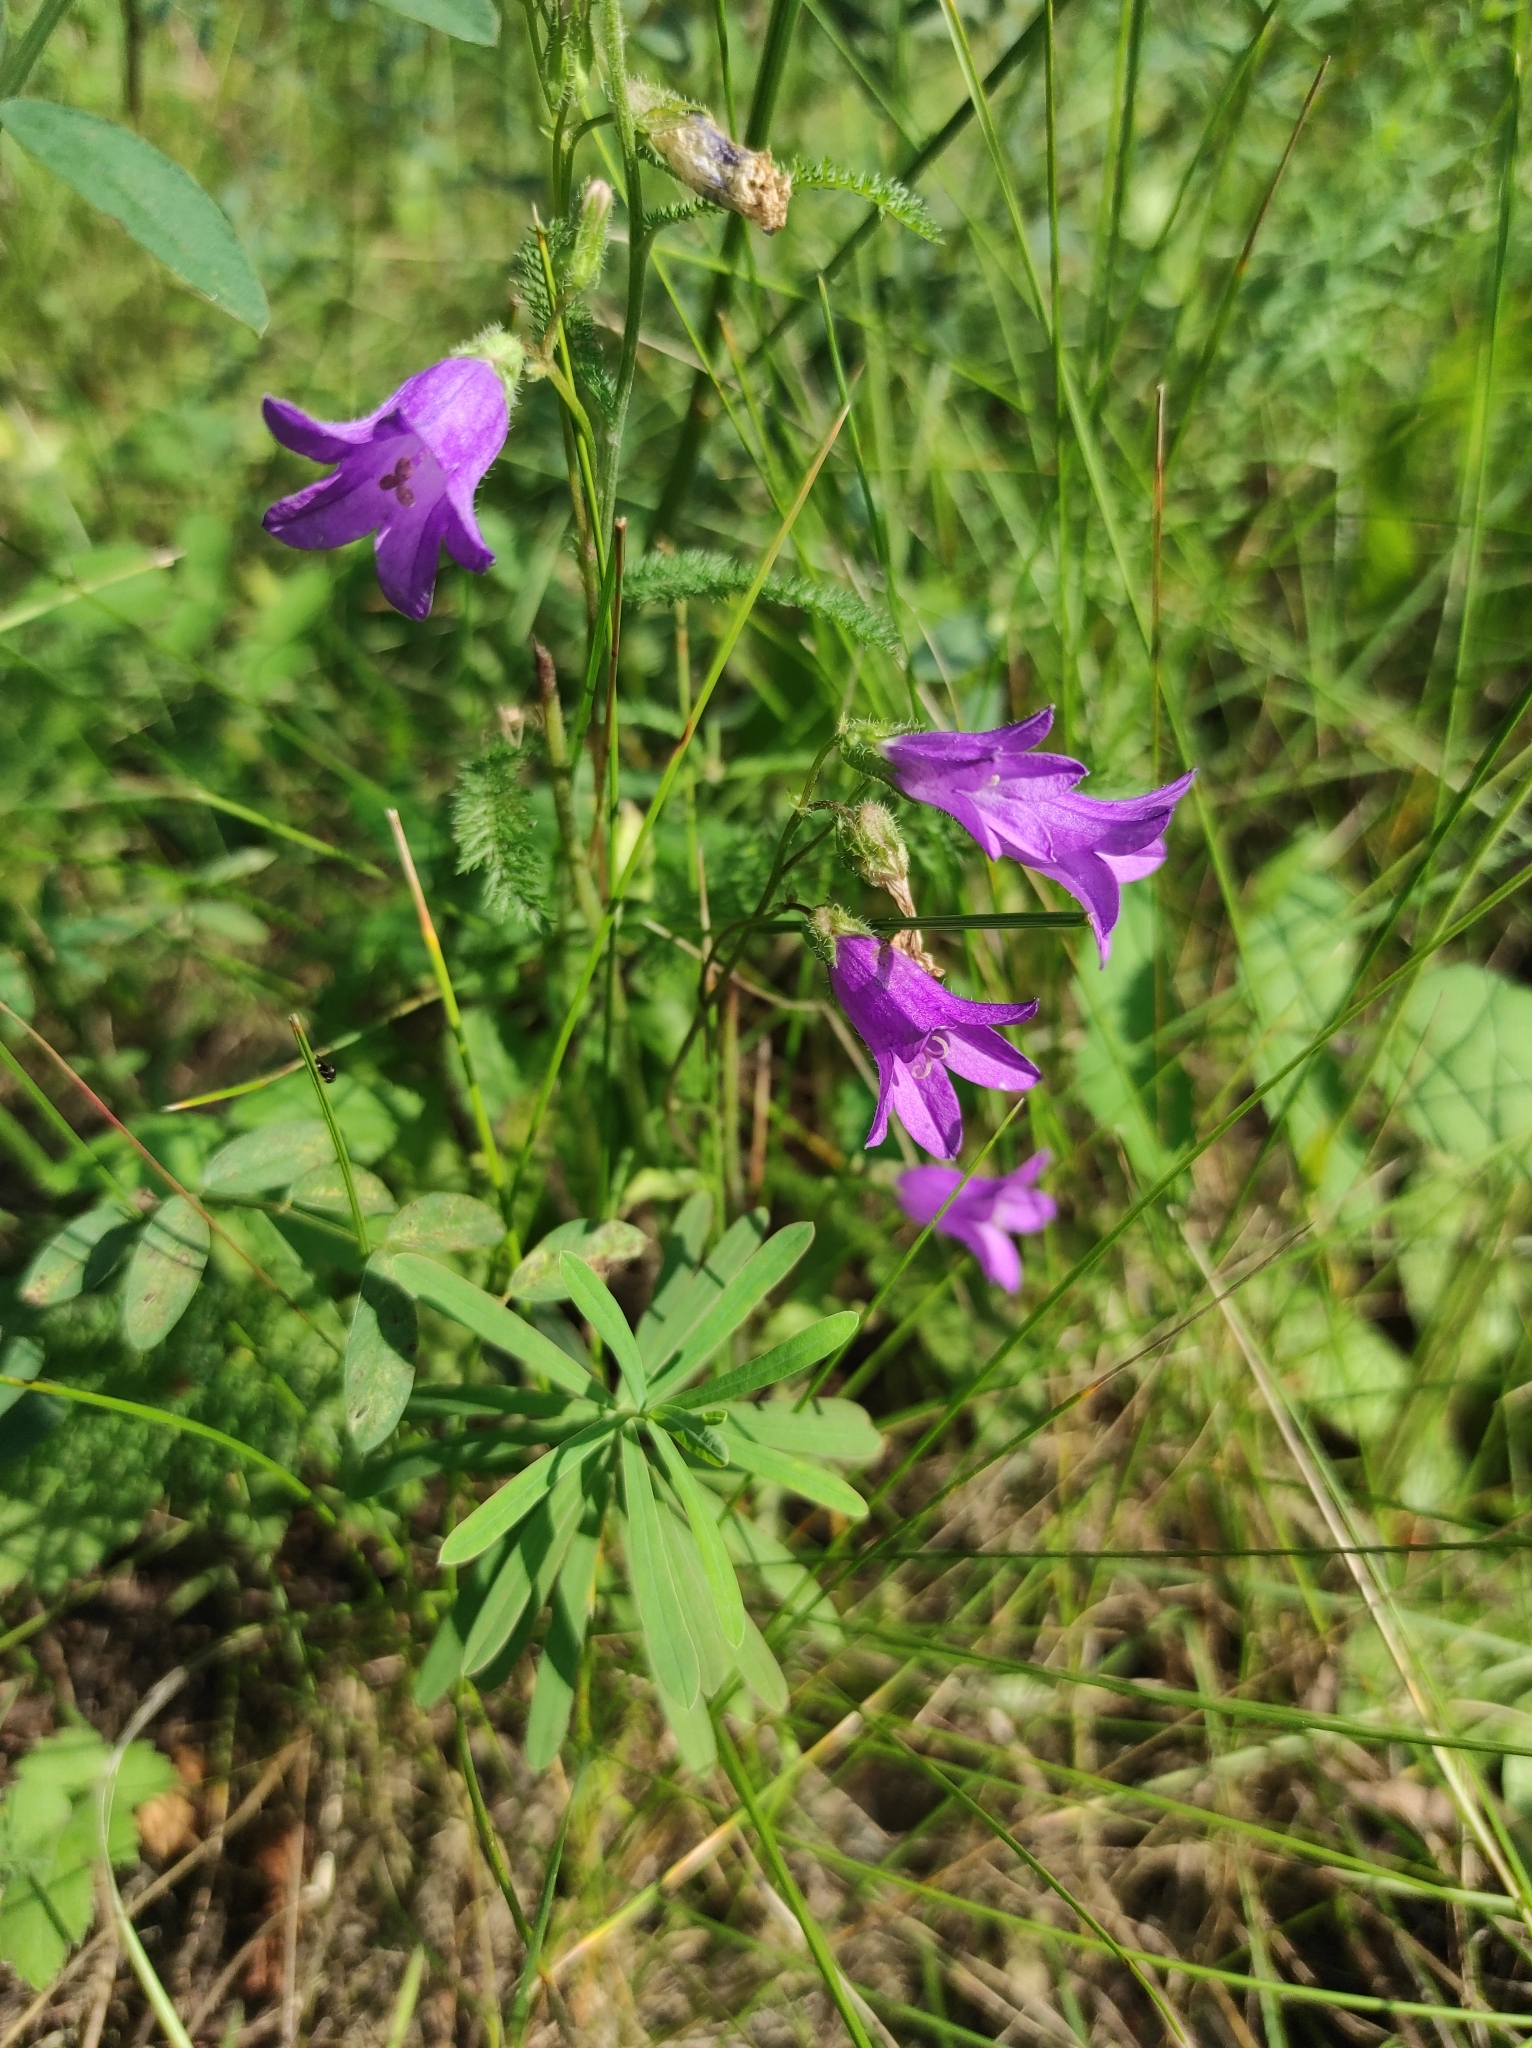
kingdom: Plantae
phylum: Tracheophyta
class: Magnoliopsida
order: Asterales
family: Campanulaceae
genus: Campanula
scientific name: Campanula sibirica
